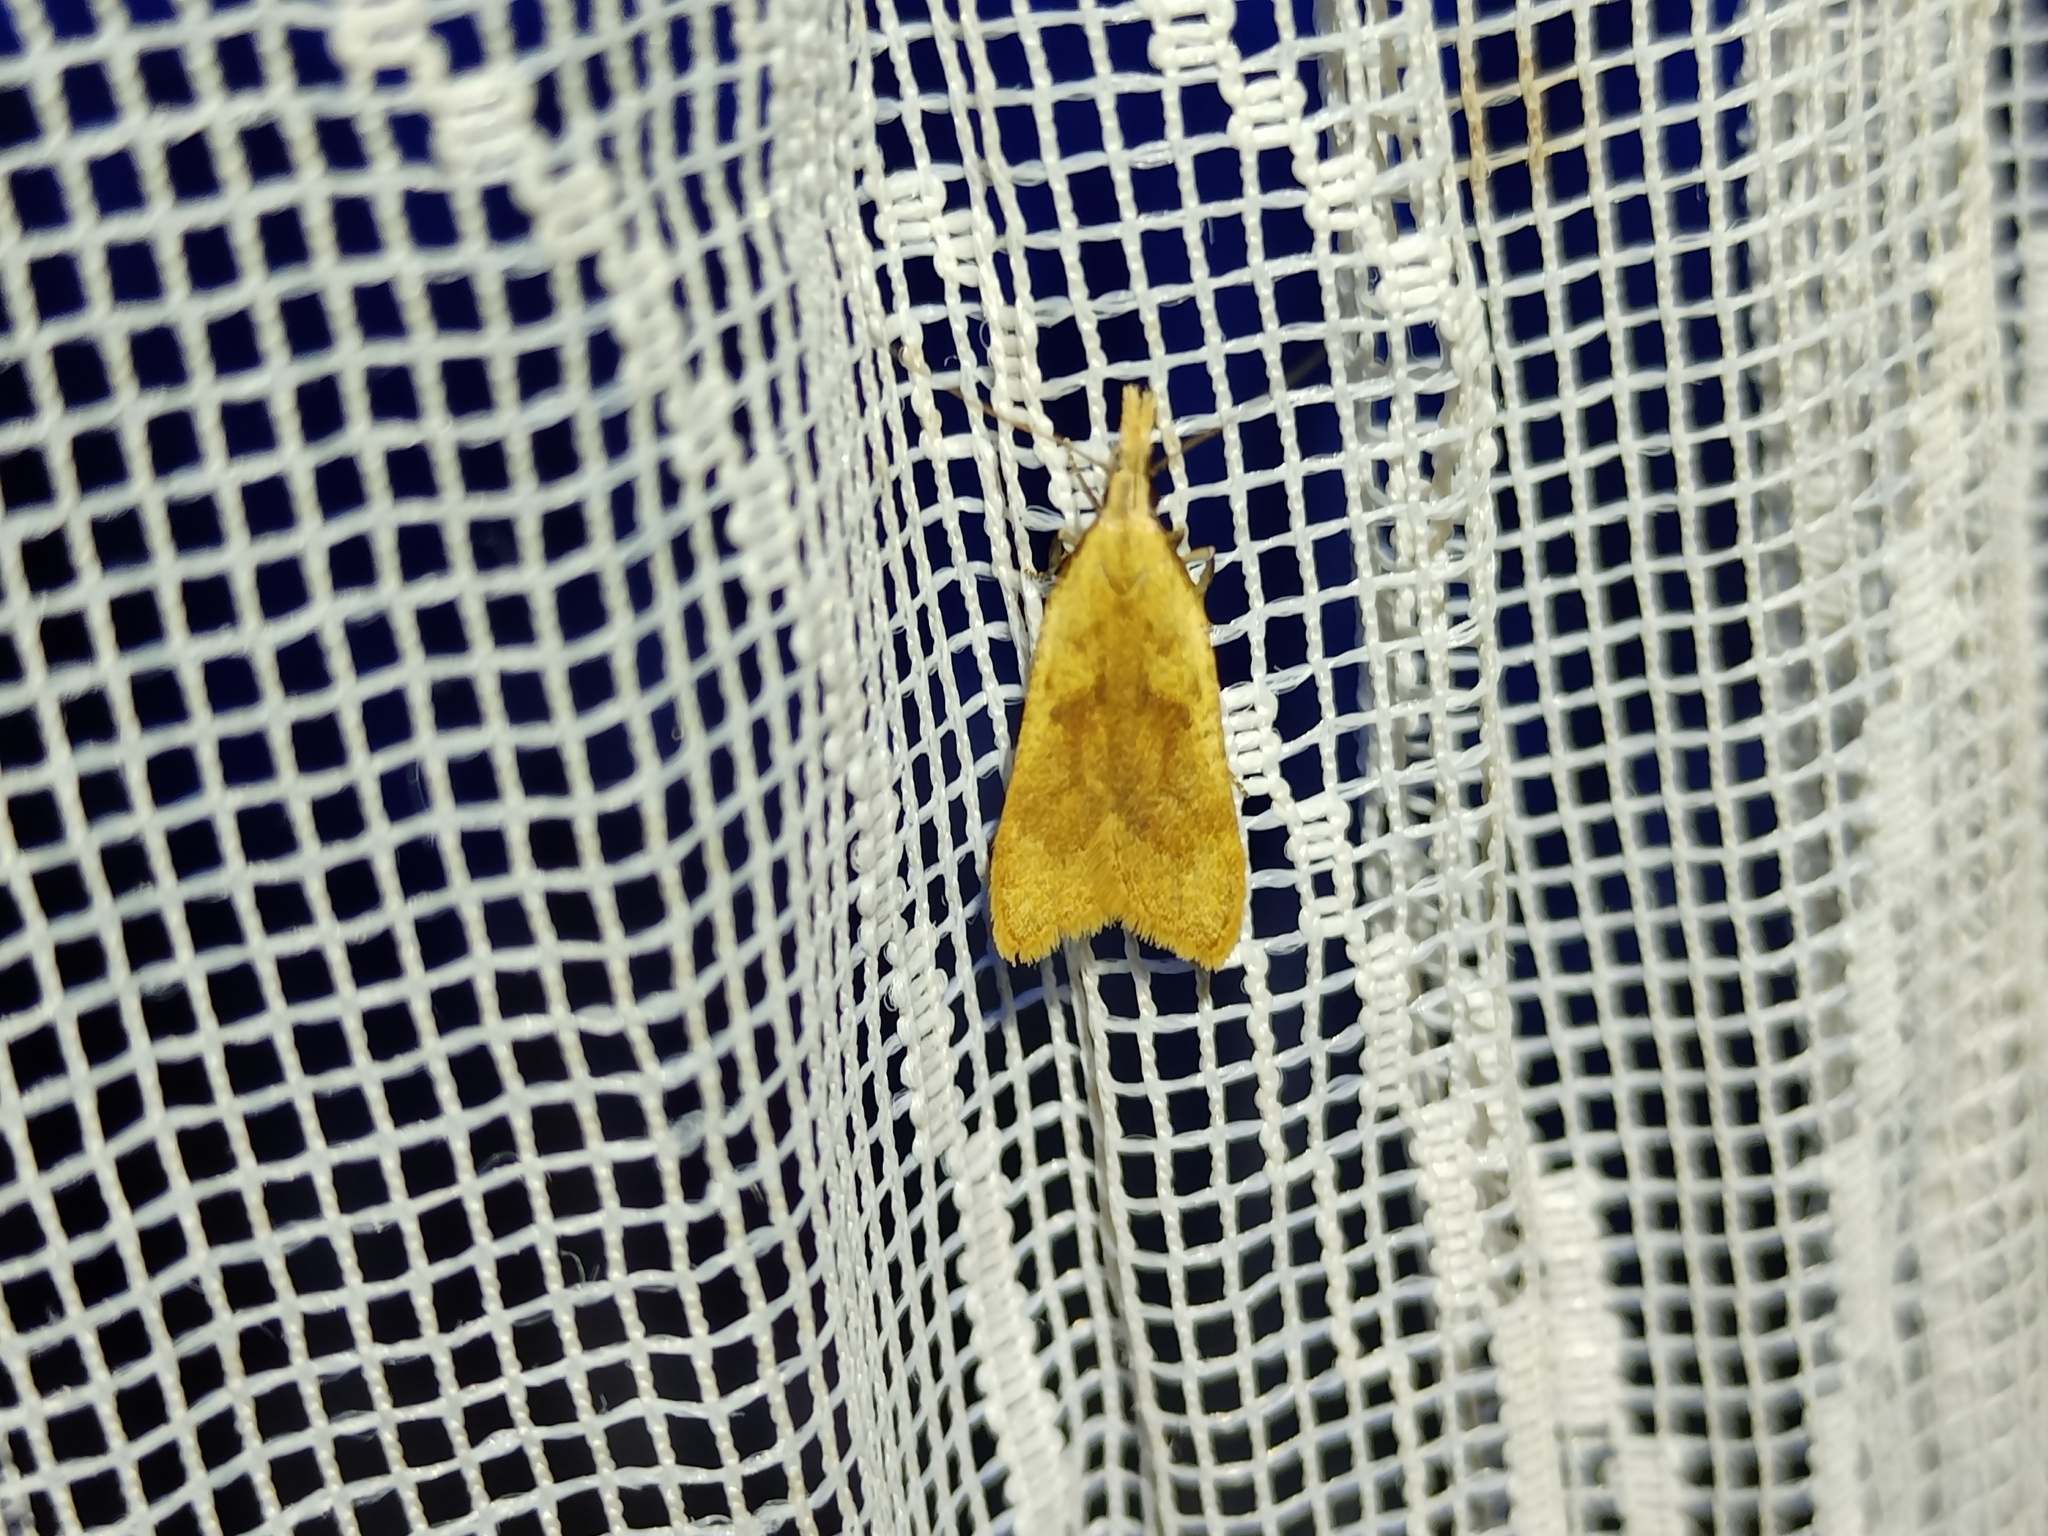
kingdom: Animalia
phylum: Arthropoda
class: Insecta
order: Lepidoptera
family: Gelechiidae
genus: Dichomeris
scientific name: Dichomeris derasella
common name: Blackthorn crest
